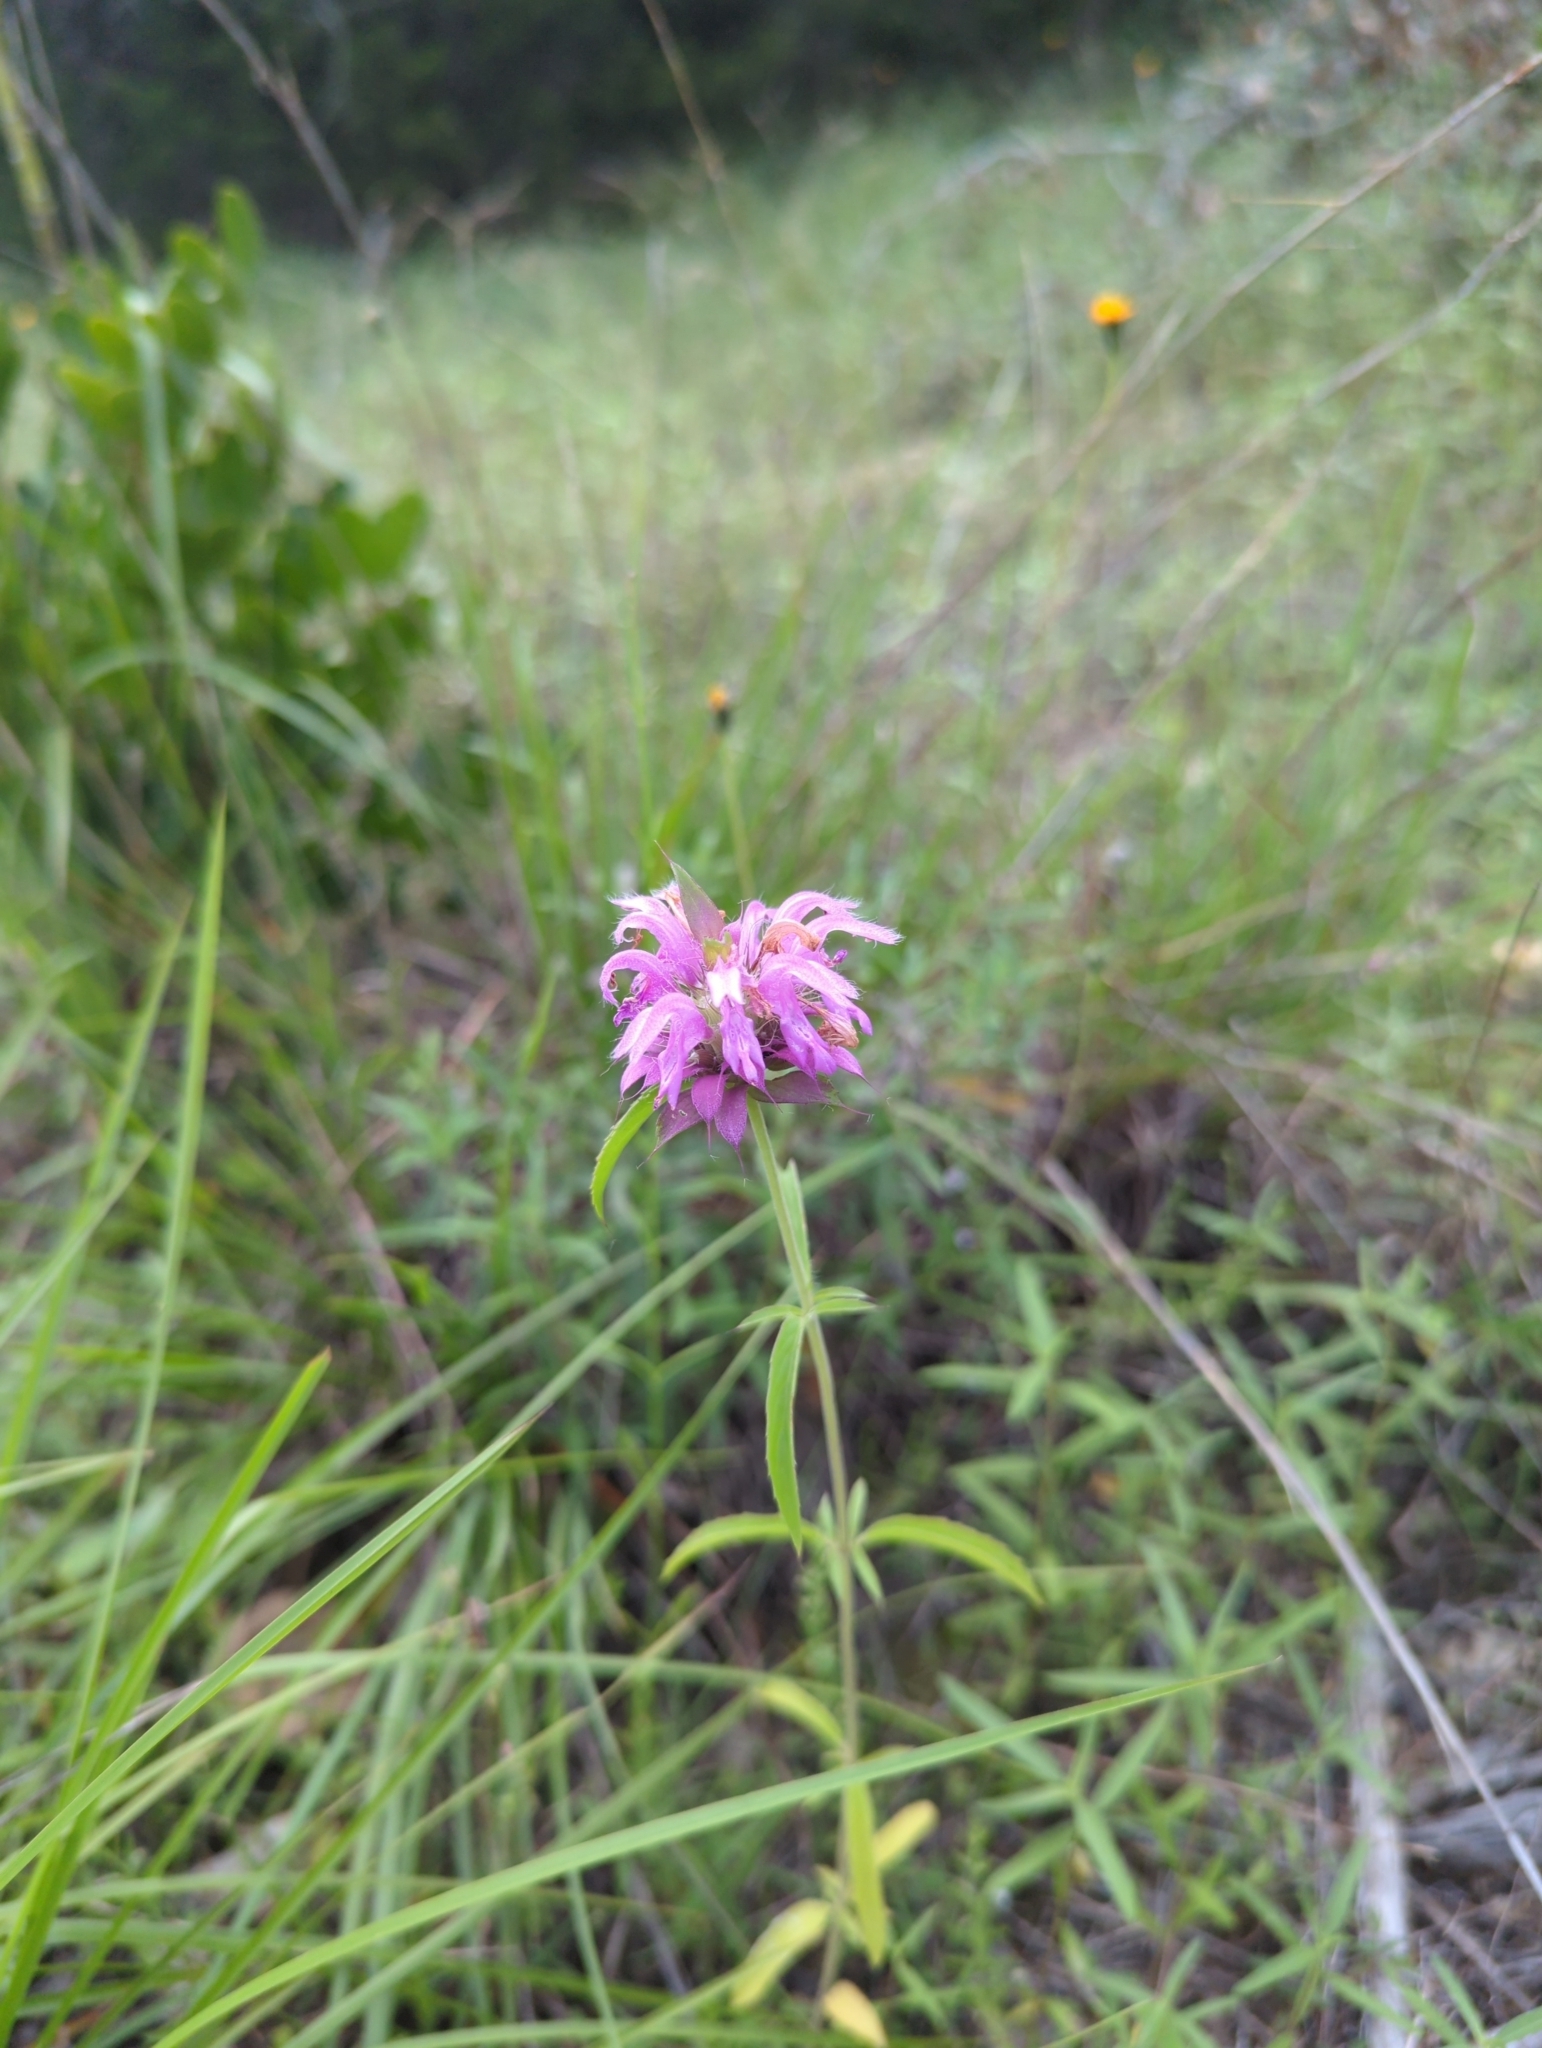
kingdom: Plantae
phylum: Tracheophyta
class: Magnoliopsida
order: Lamiales
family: Lamiaceae
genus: Monarda
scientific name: Monarda citriodora
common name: Lemon beebalm
